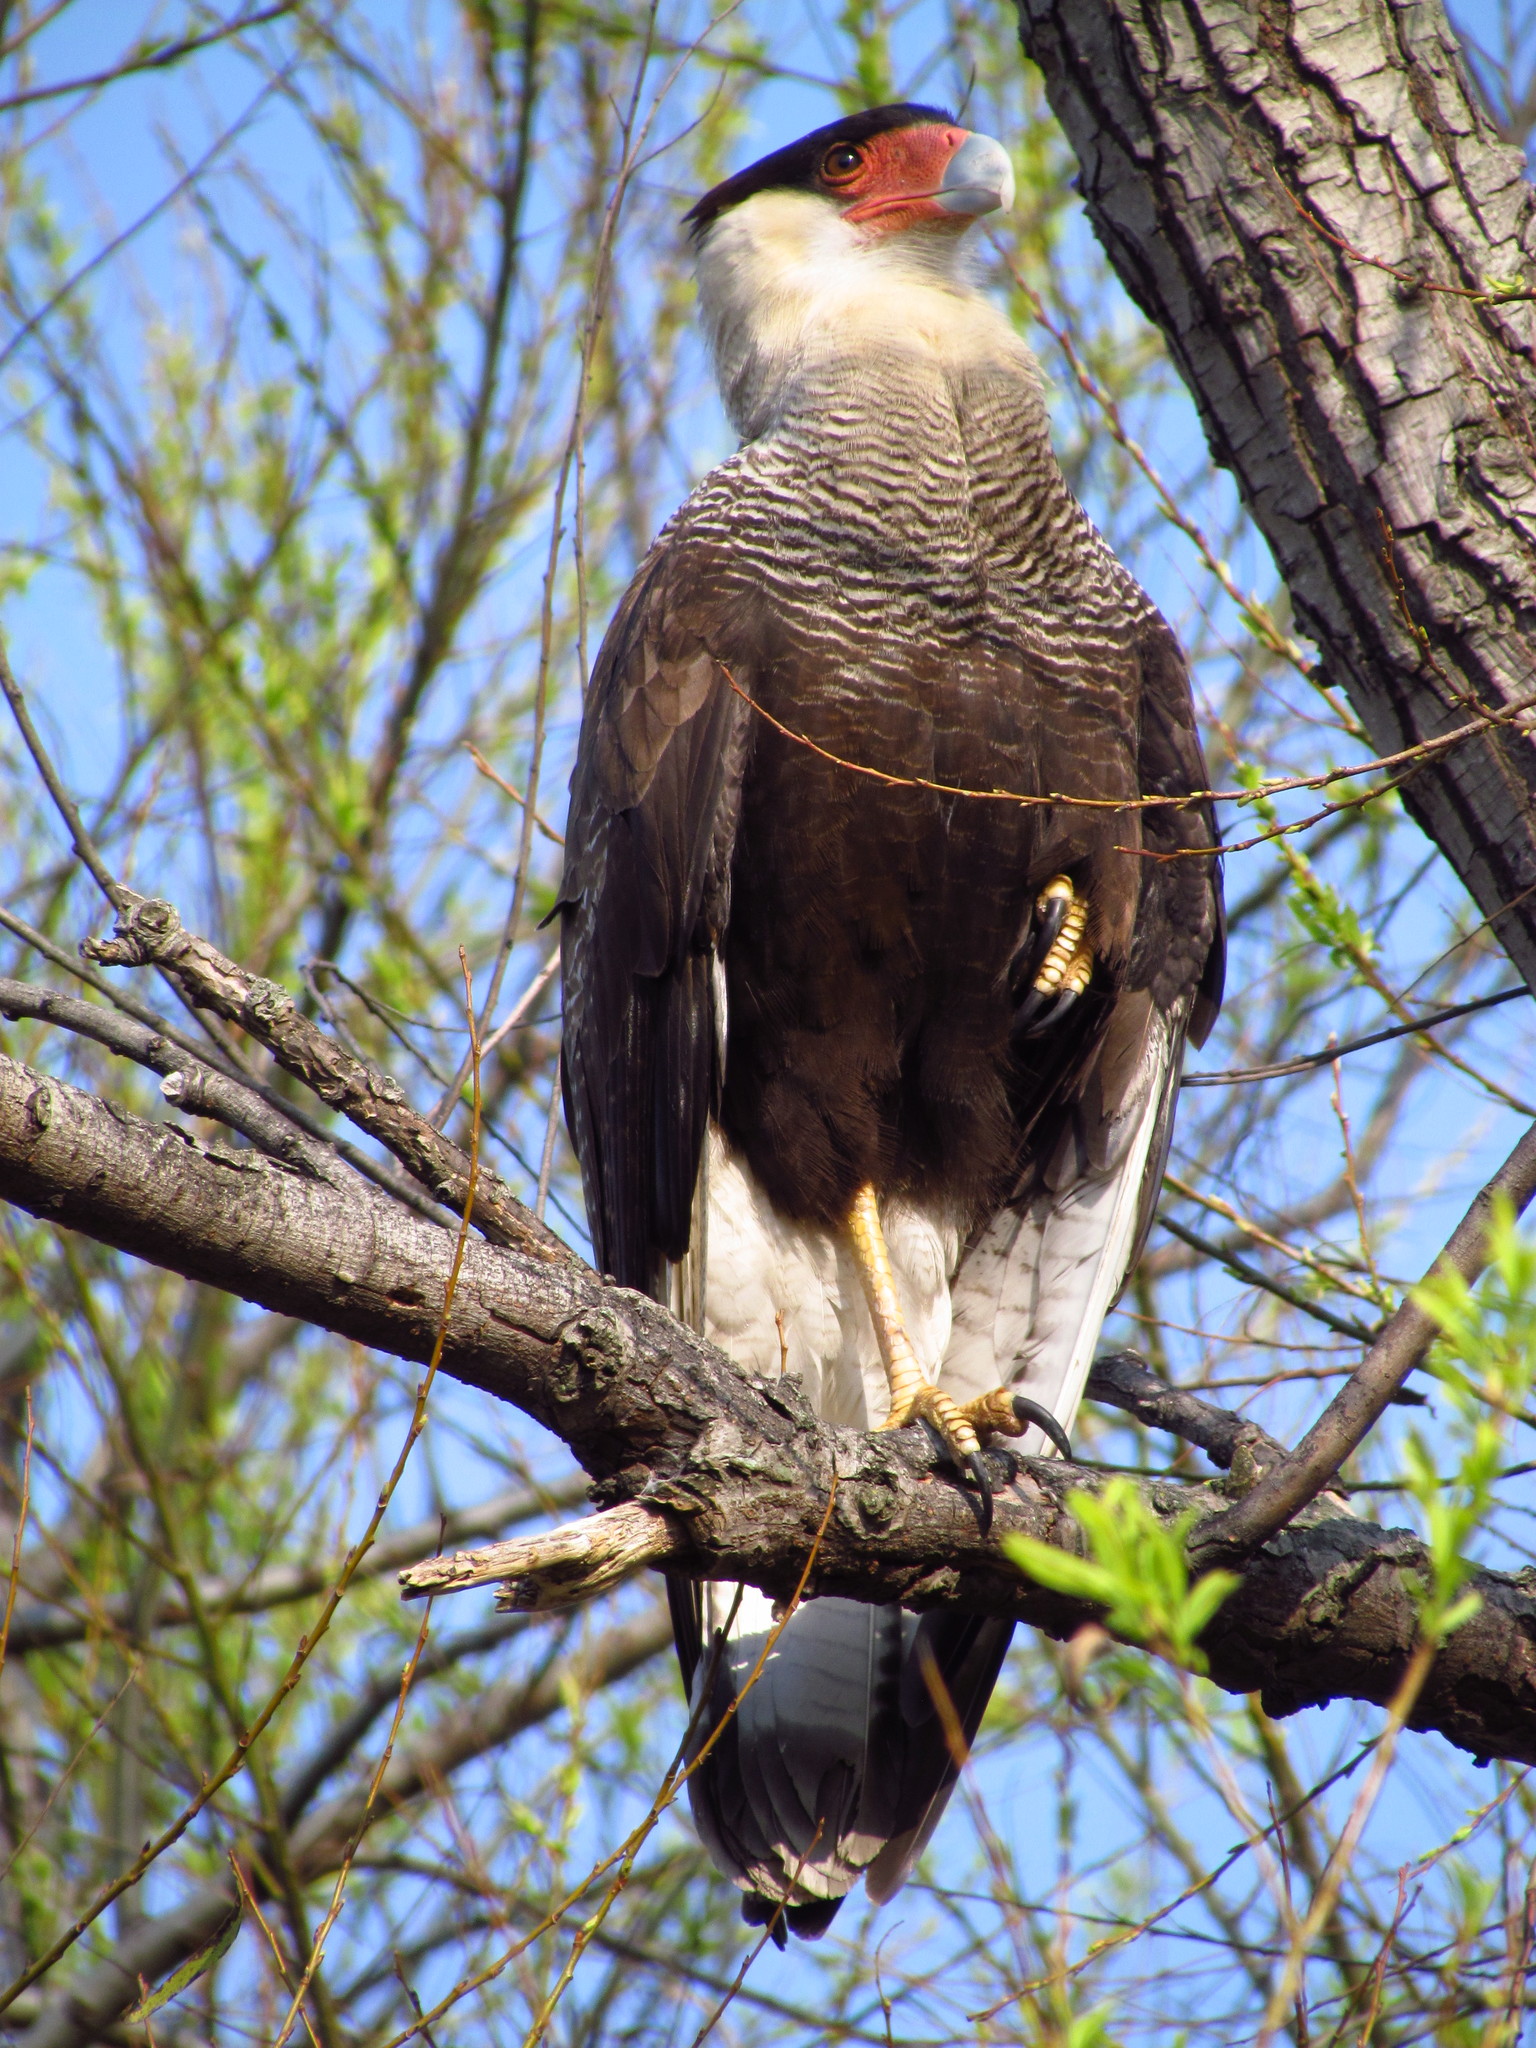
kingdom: Animalia
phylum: Chordata
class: Aves
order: Falconiformes
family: Falconidae
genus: Caracara
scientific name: Caracara plancus
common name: Southern caracara
